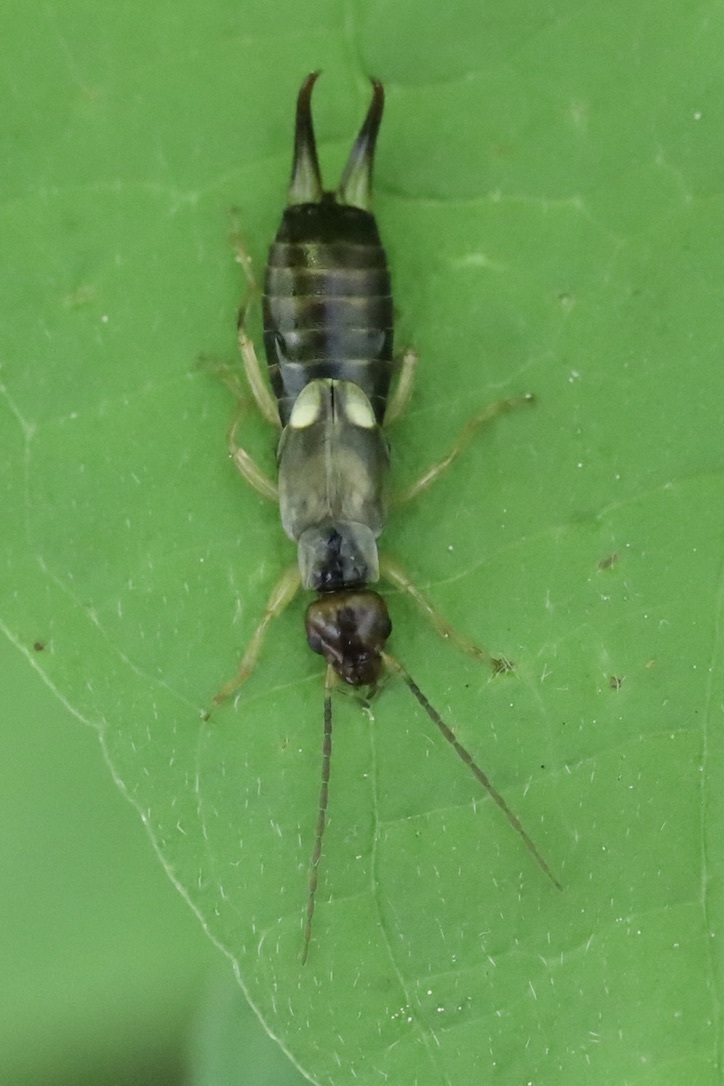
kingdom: Animalia
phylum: Arthropoda
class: Insecta
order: Dermaptera
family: Forficulidae
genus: Forficula
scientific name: Forficula
